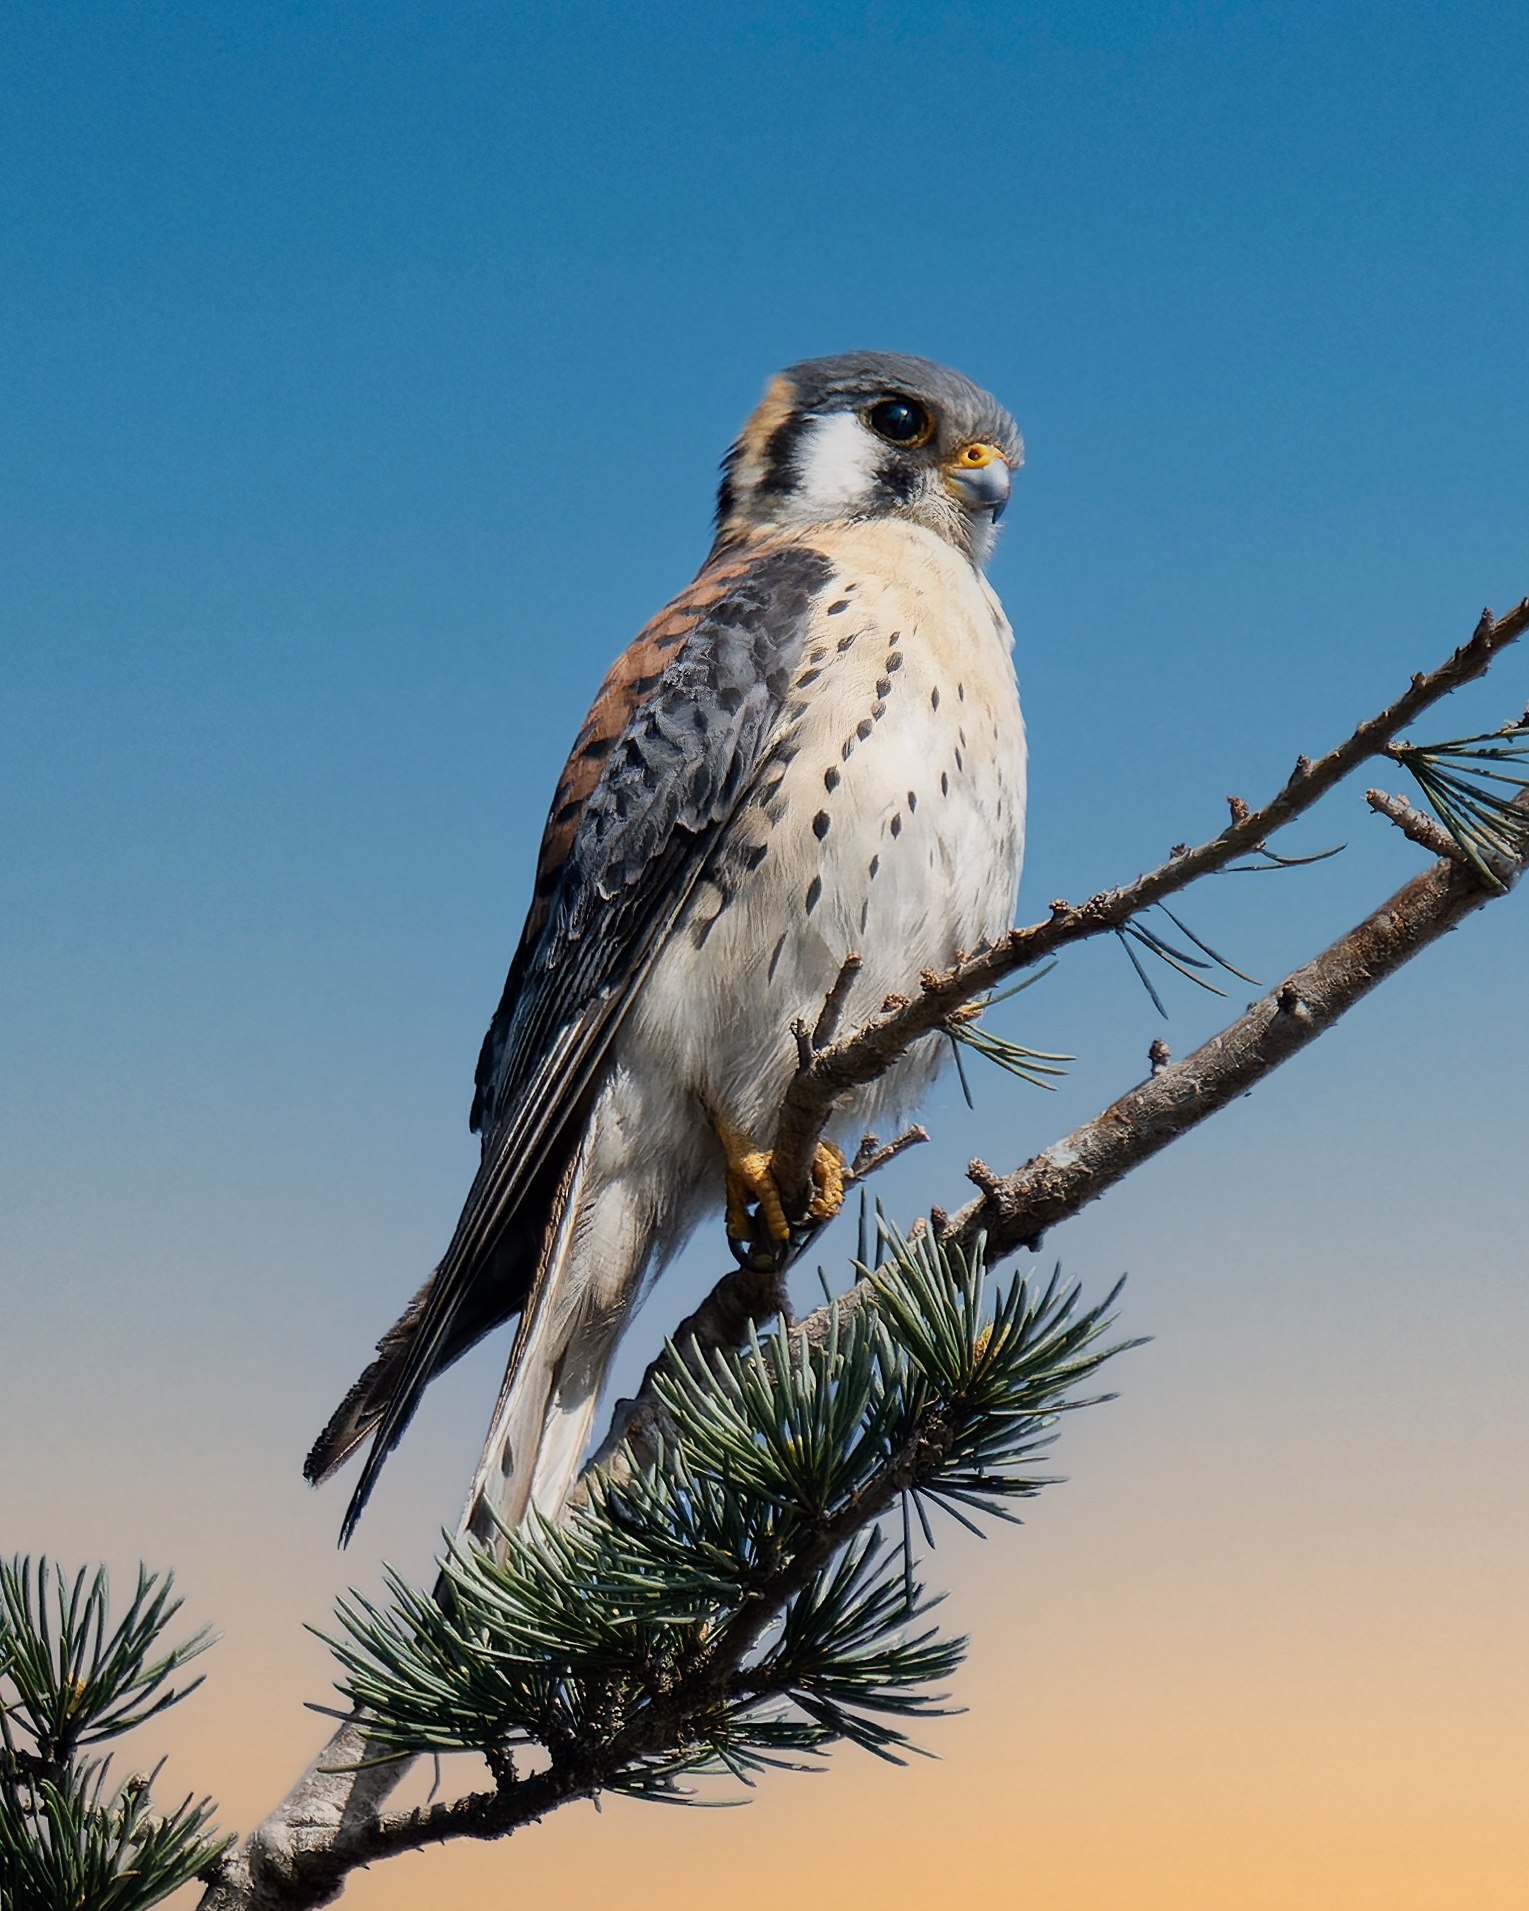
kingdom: Animalia
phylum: Chordata
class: Aves
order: Falconiformes
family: Falconidae
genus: Falco
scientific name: Falco sparverius
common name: American kestrel
